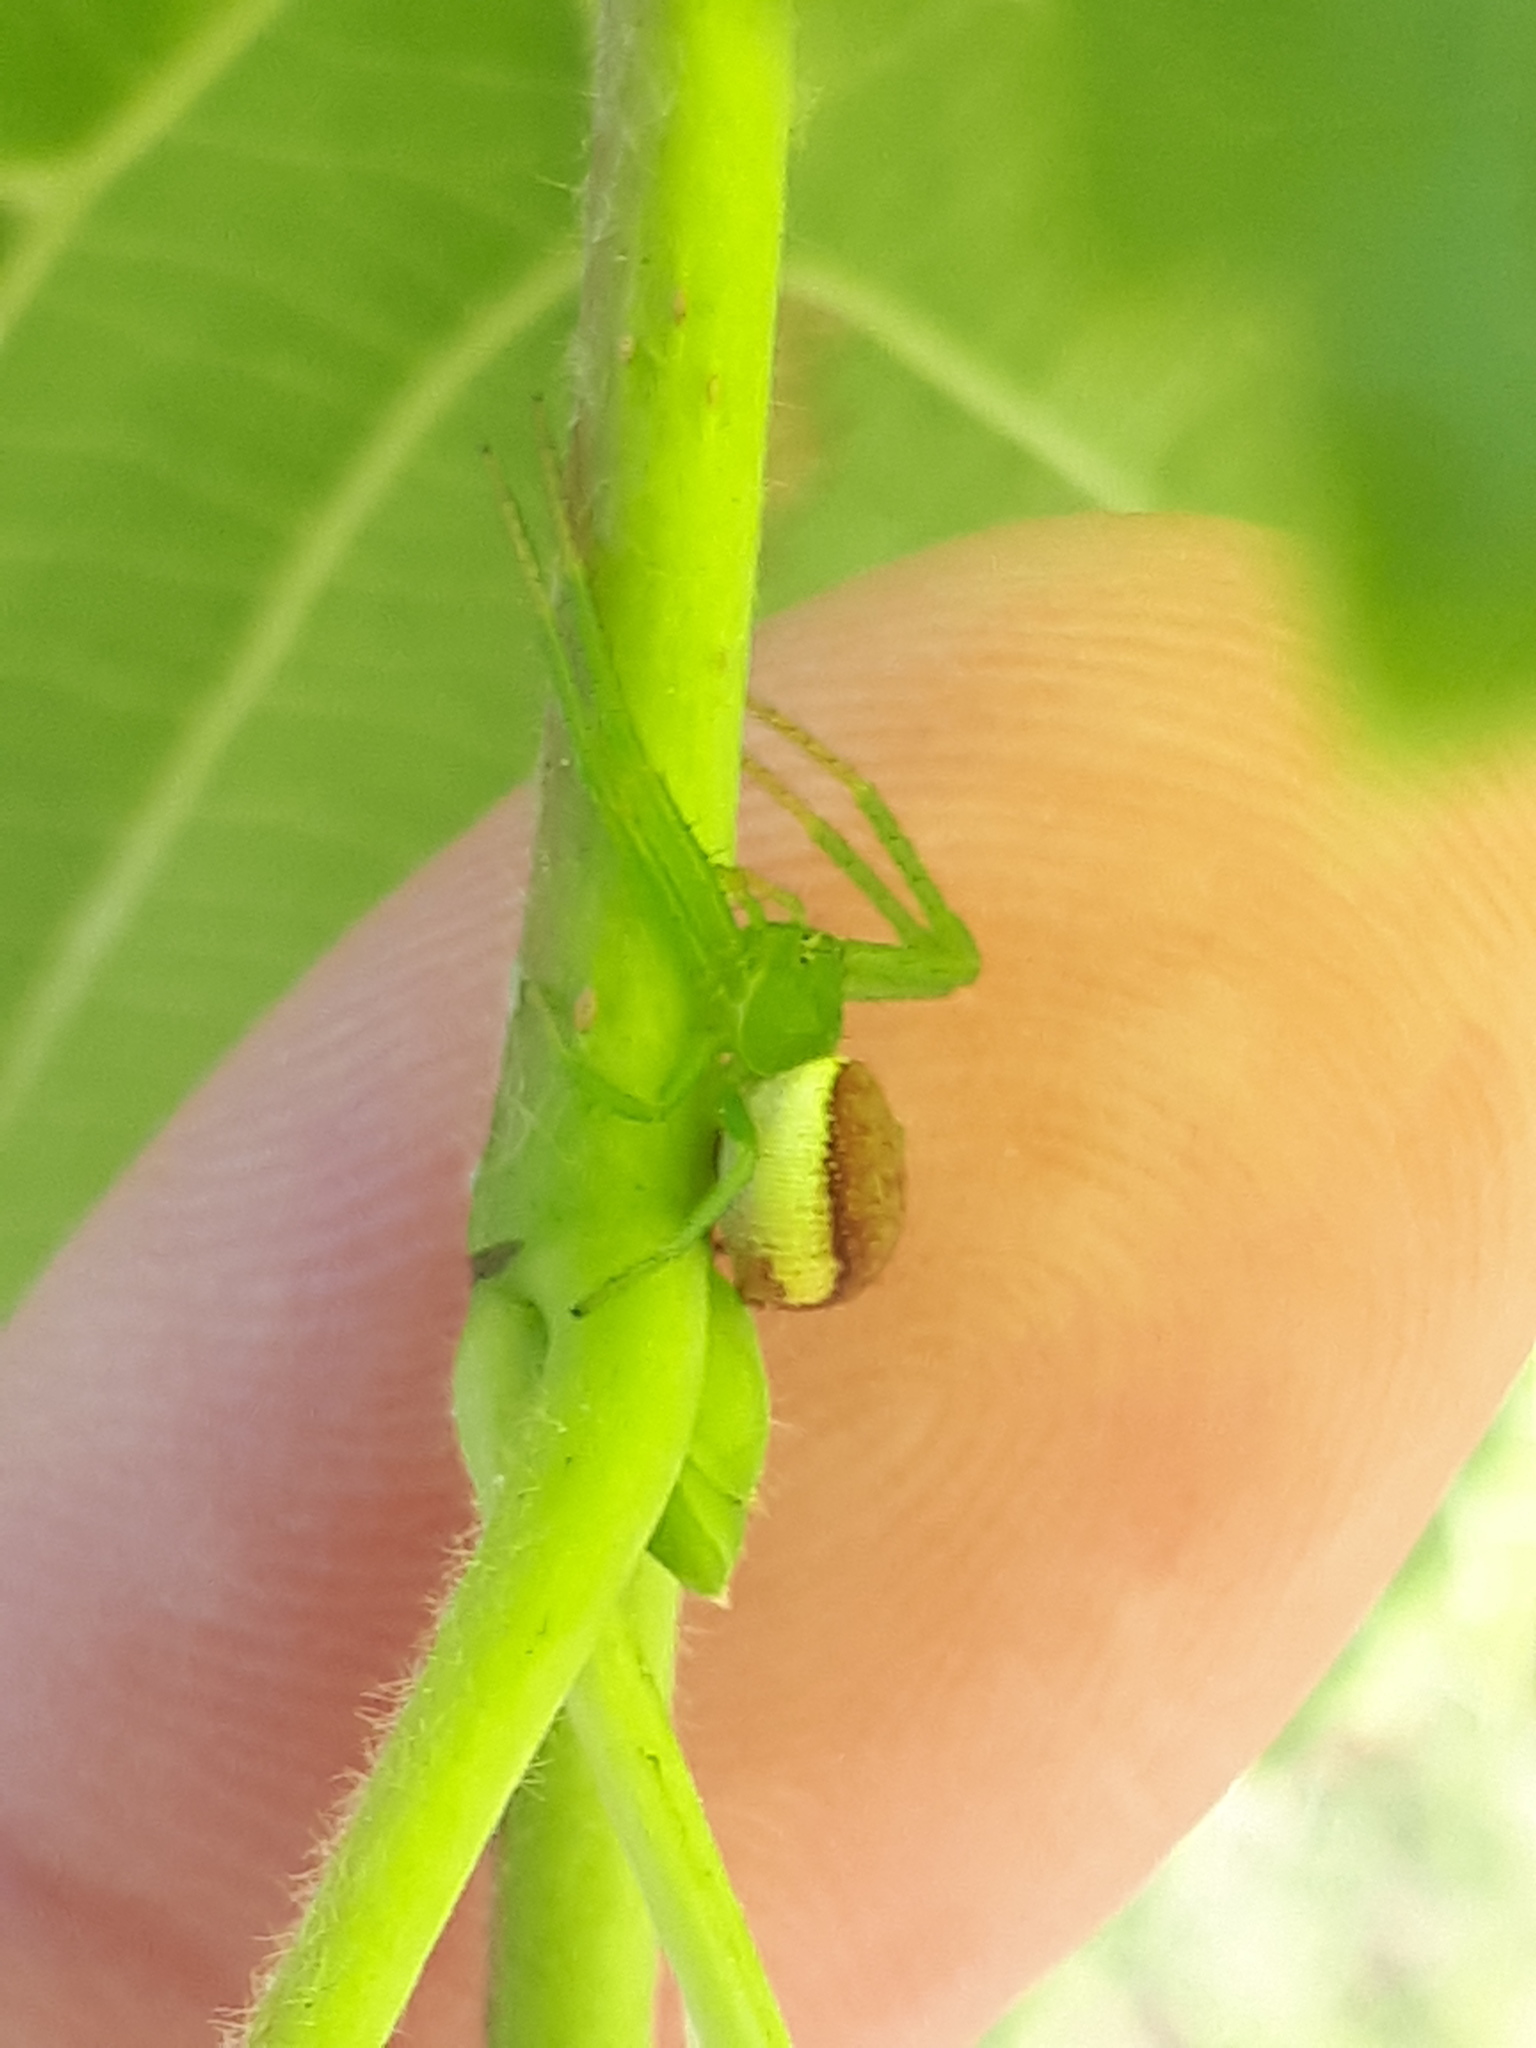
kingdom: Animalia
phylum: Arthropoda
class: Arachnida
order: Araneae
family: Thomisidae
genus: Diaea
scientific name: Diaea dorsata
